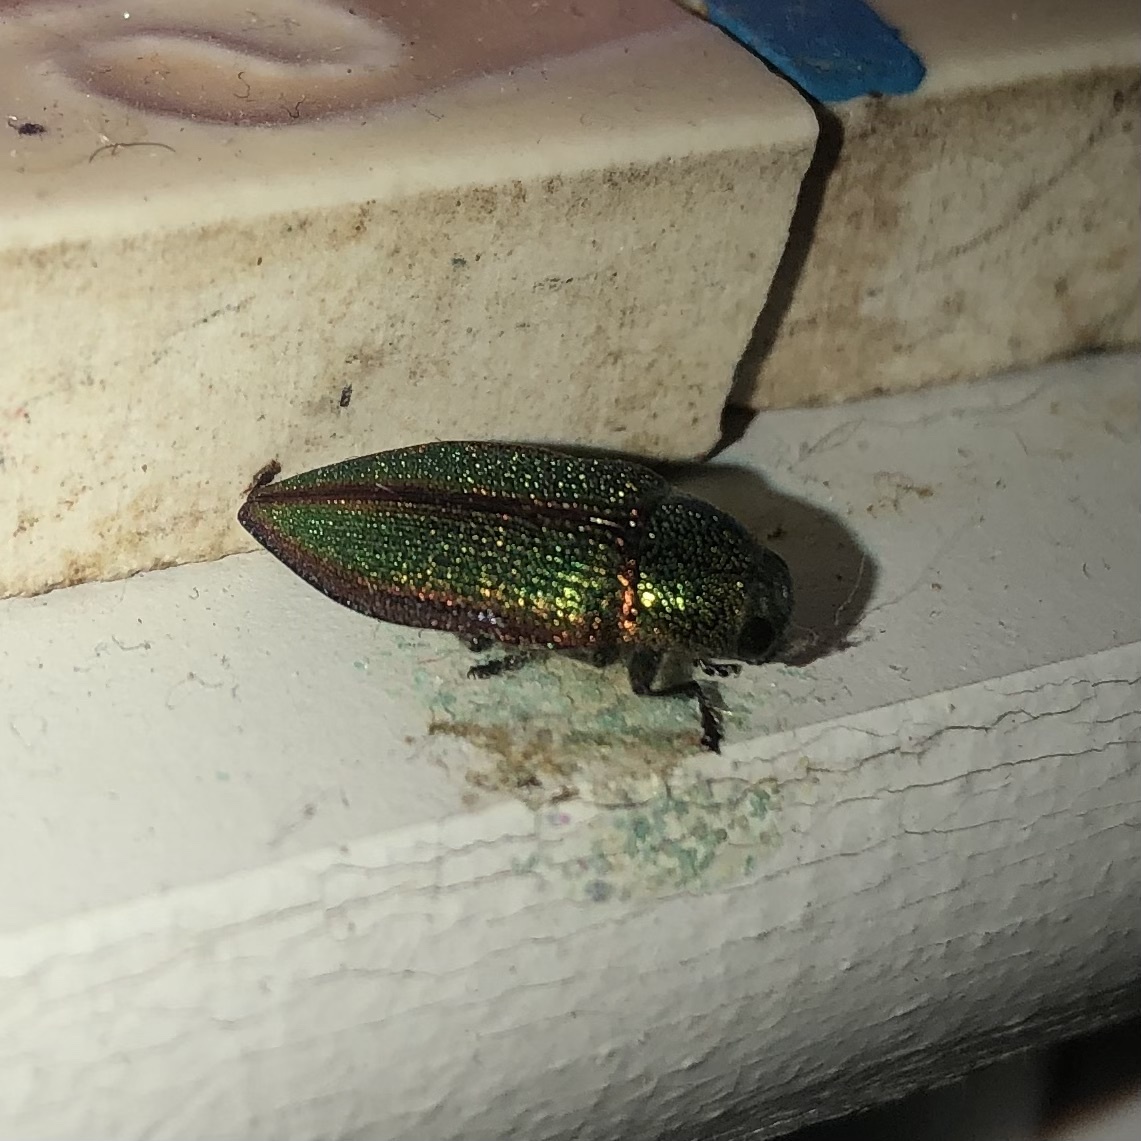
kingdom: Animalia
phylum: Arthropoda
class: Insecta
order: Coleoptera
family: Buprestidae
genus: Buprestis
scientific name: Buprestis salisburyensis
